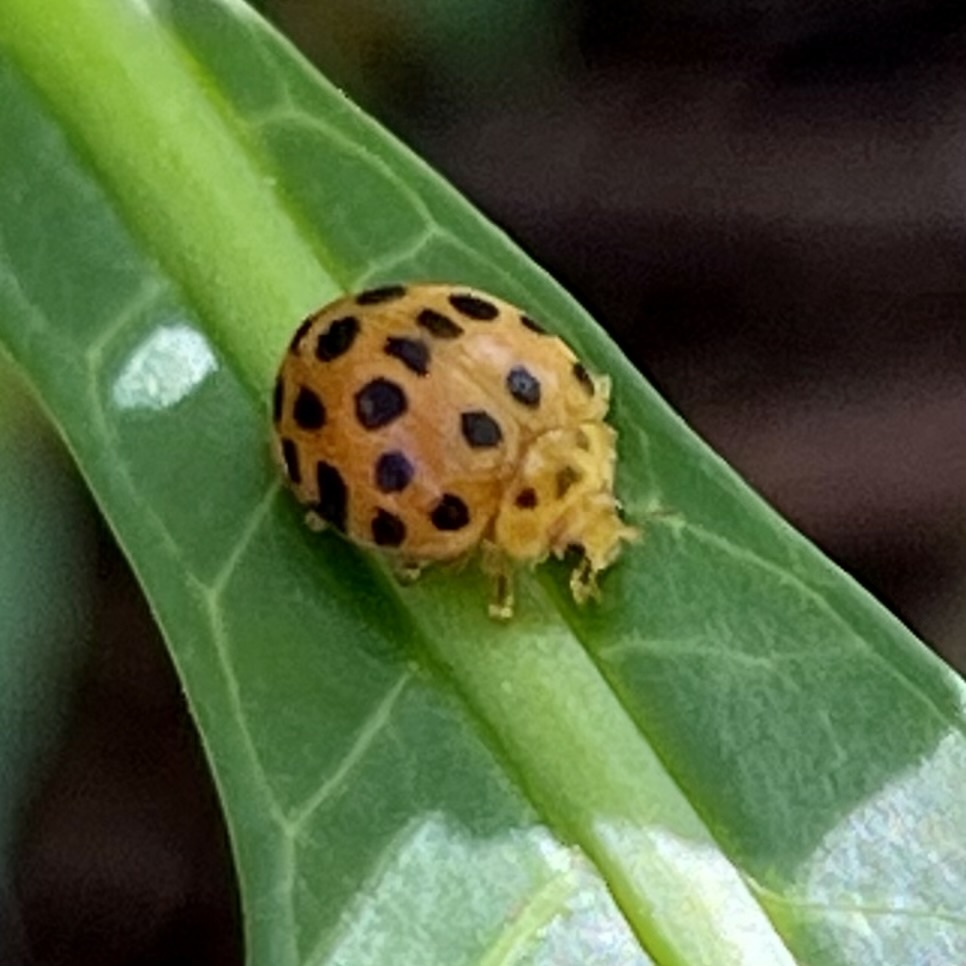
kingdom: Animalia
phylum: Arthropoda
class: Insecta
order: Coleoptera
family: Coccinellidae
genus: Henosepilachna
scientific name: Henosepilachna vigintioctopunctata
